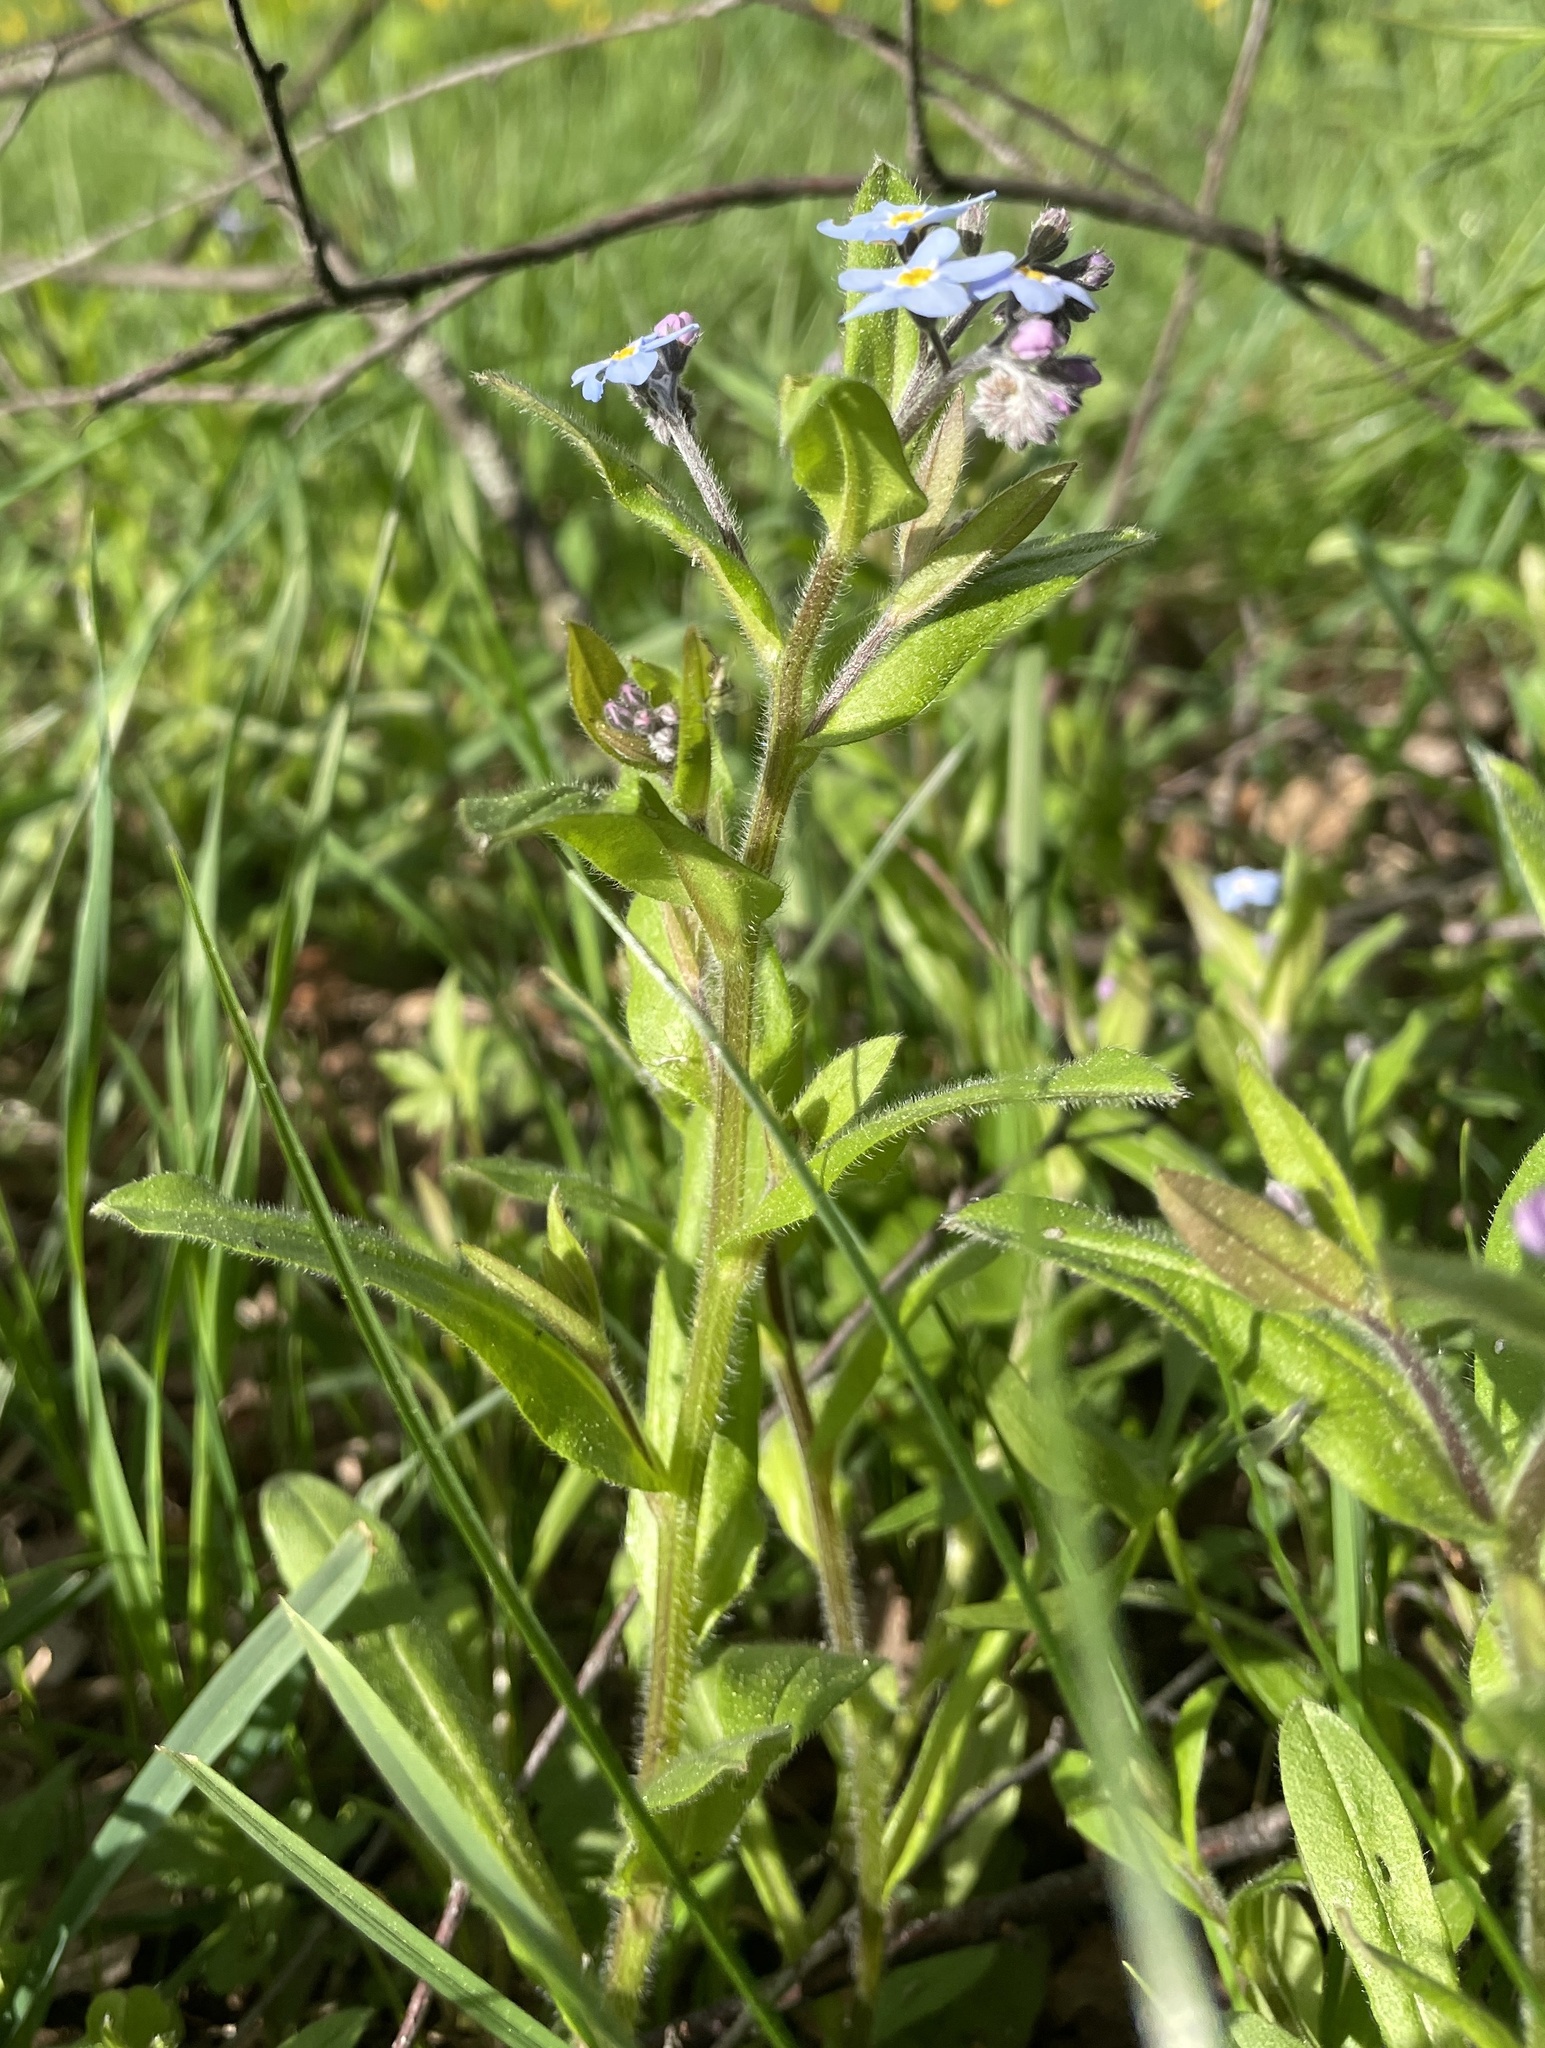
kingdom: Plantae
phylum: Tracheophyta
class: Magnoliopsida
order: Boraginales
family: Boraginaceae
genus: Myosotis
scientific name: Myosotis sylvatica
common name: Wood forget-me-not
